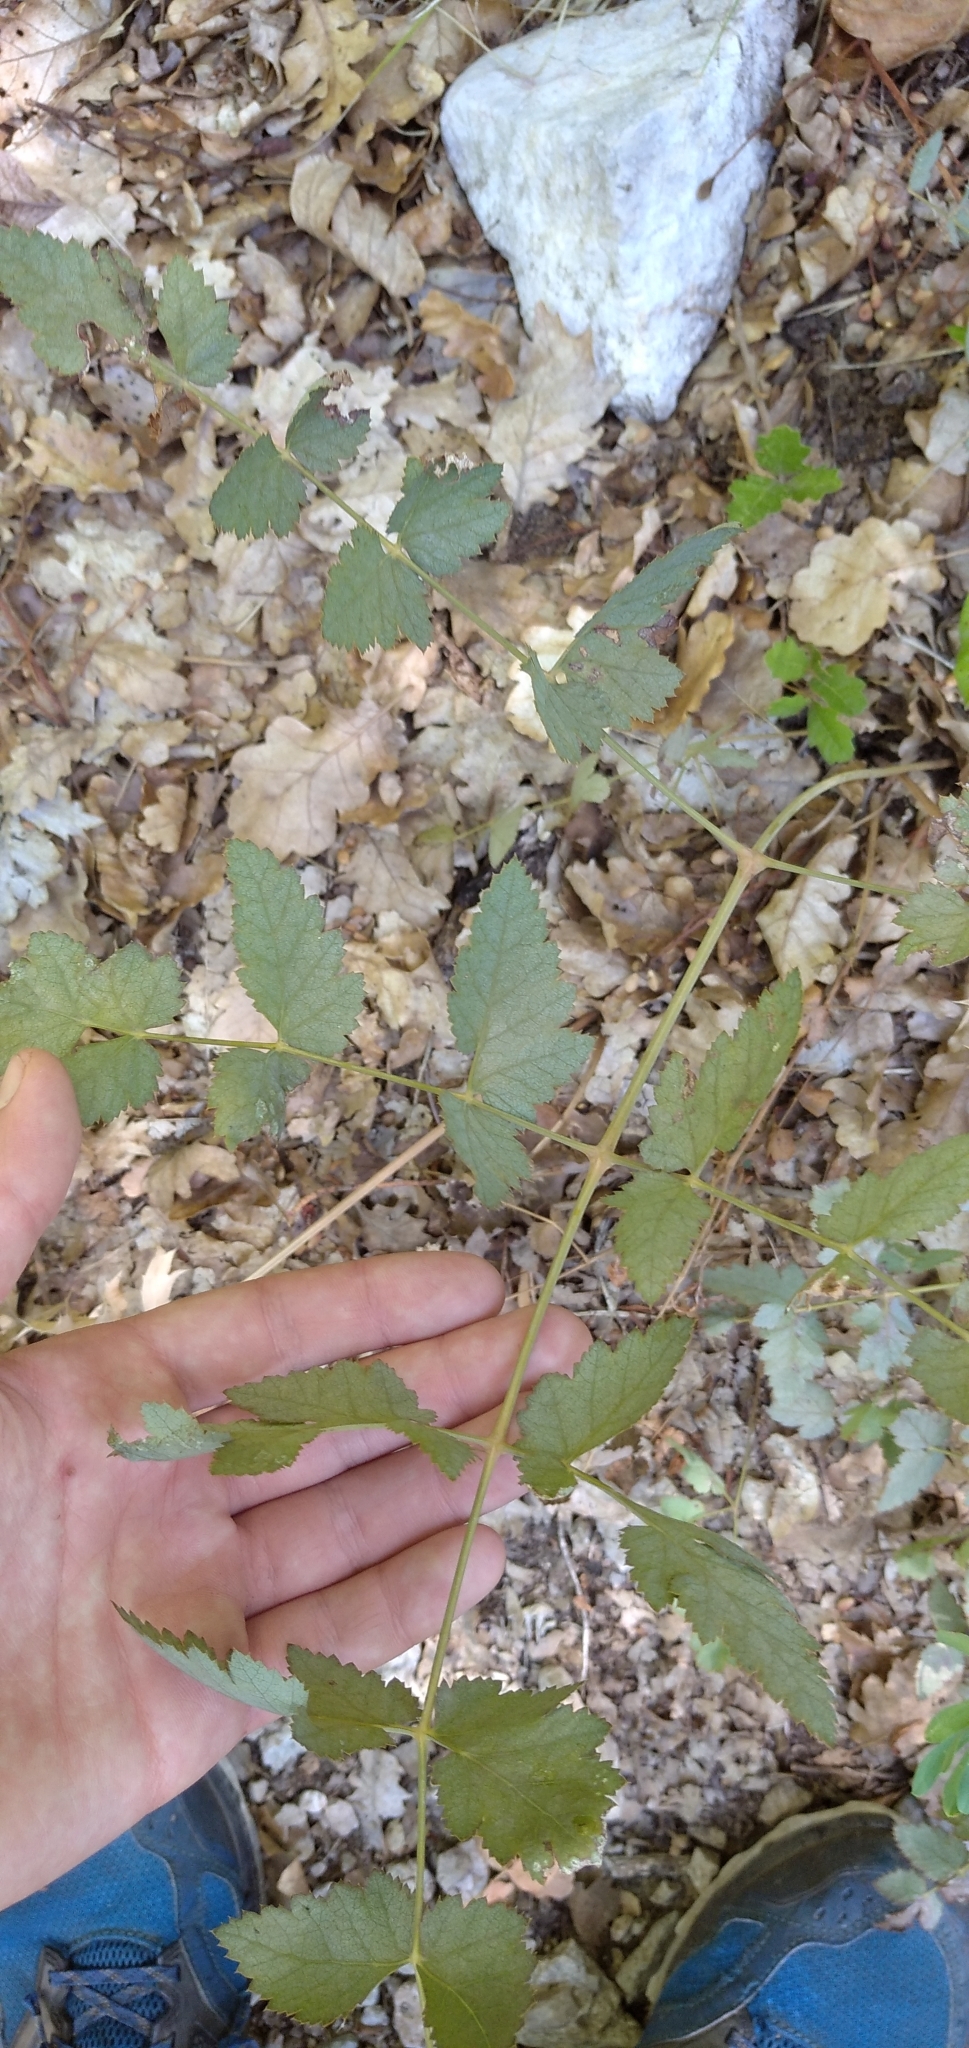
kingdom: Plantae
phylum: Tracheophyta
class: Magnoliopsida
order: Apiales
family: Apiaceae
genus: Cervaria
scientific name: Cervaria rivini
